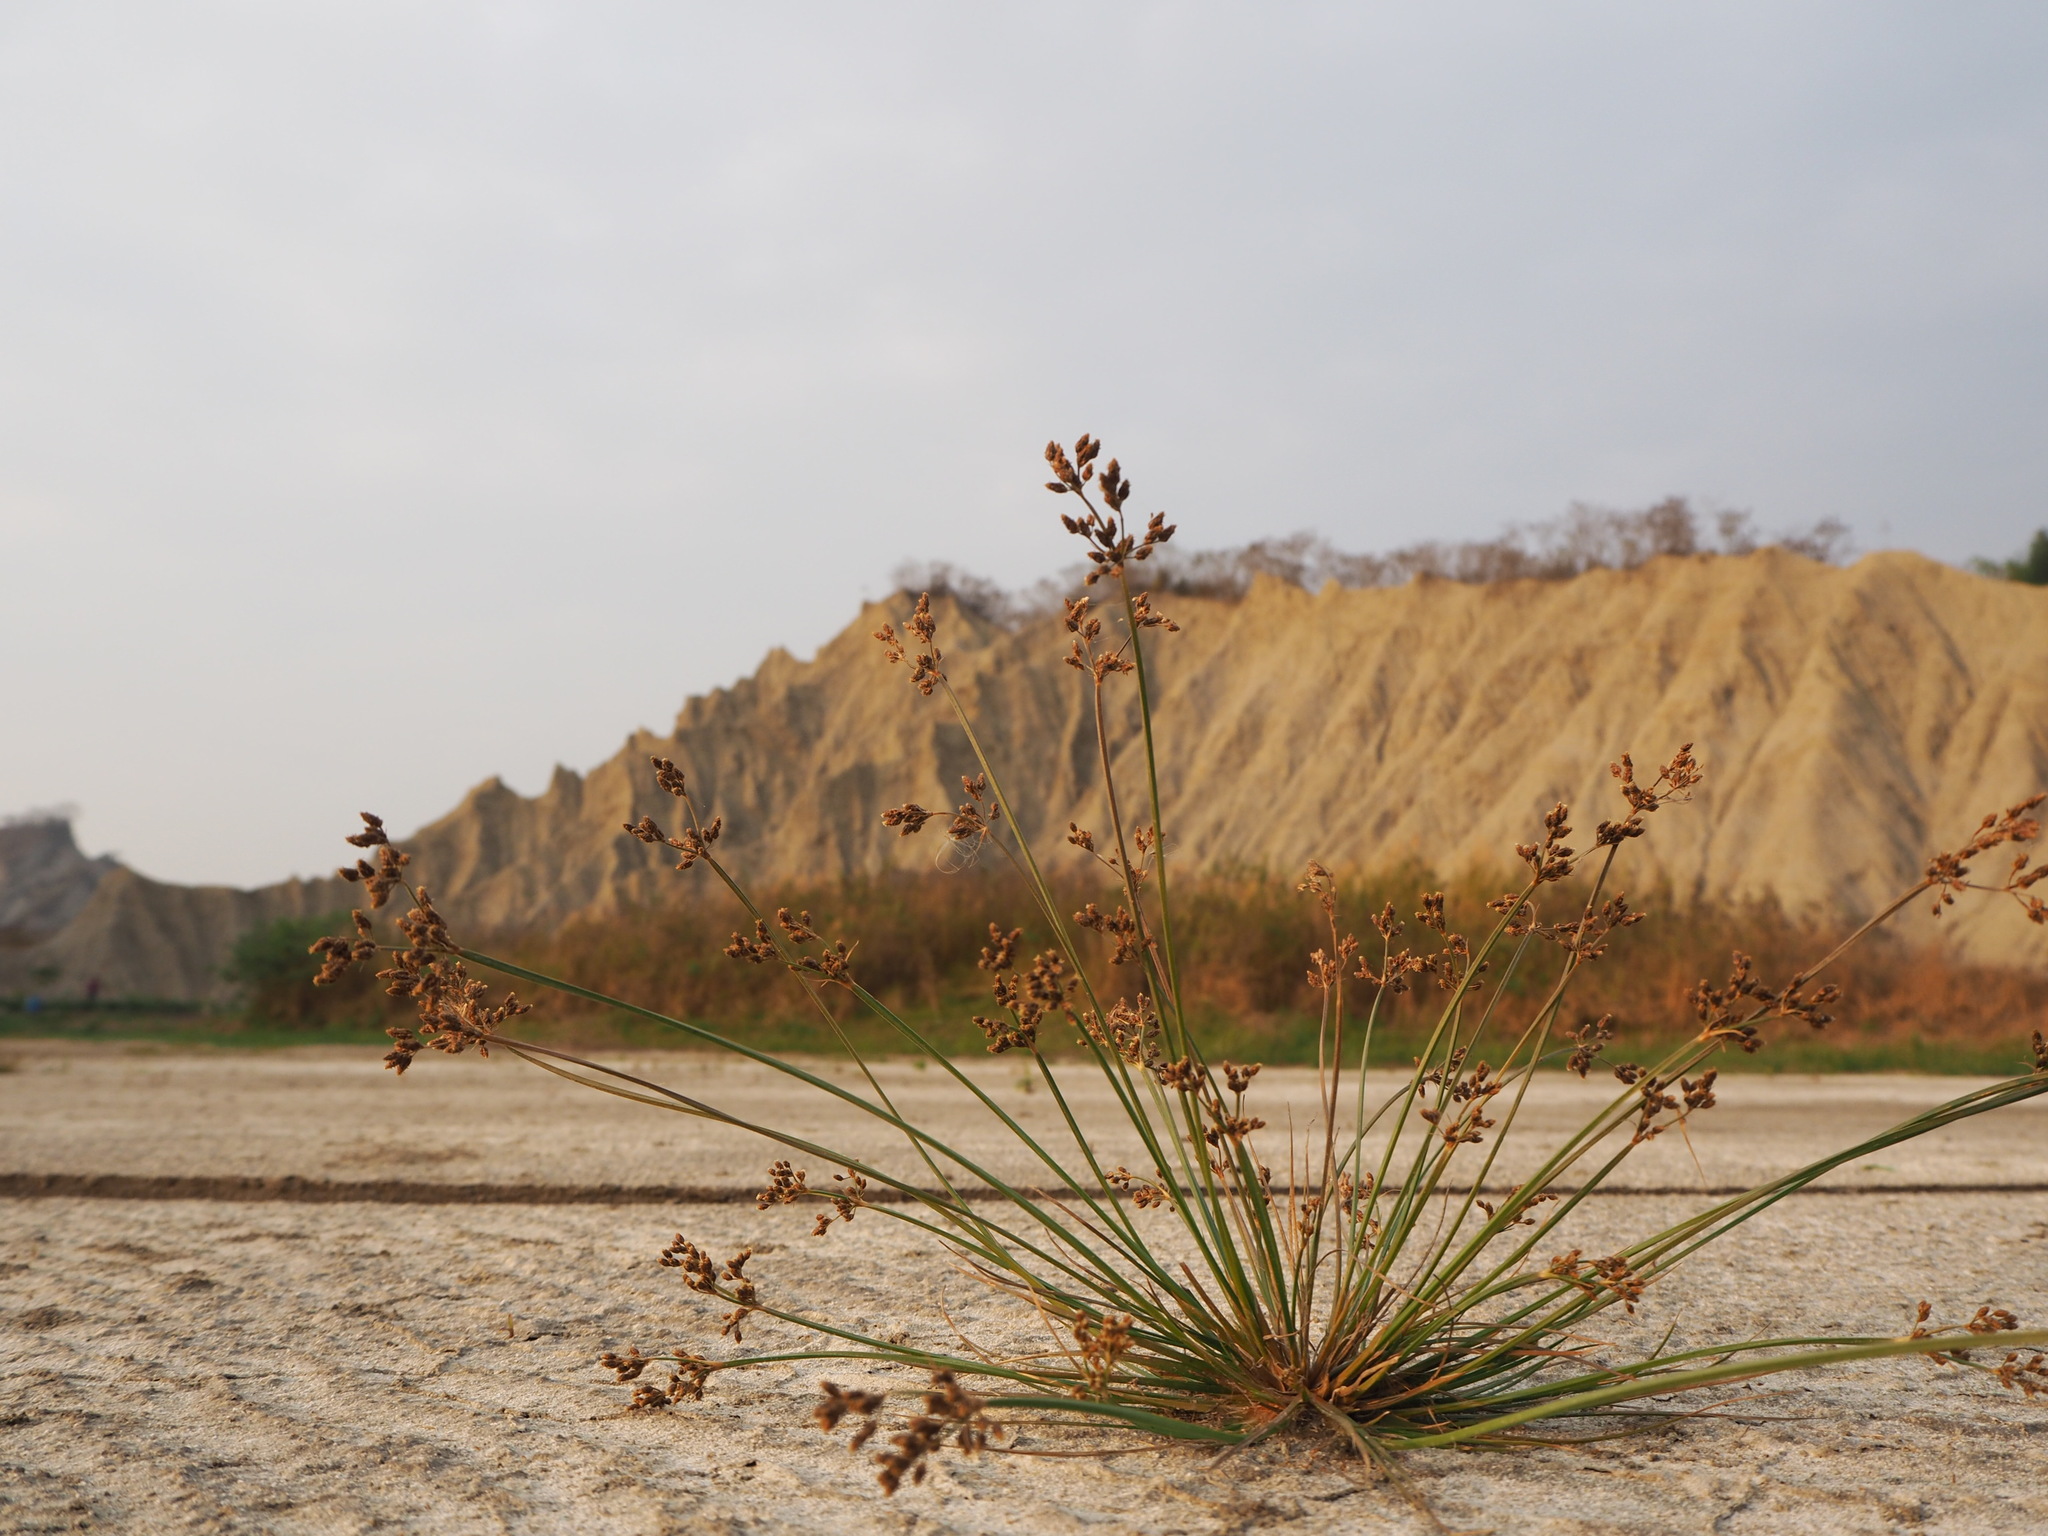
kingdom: Plantae
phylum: Tracheophyta
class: Liliopsida
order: Poales
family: Cyperaceae
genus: Fimbristylis
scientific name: Fimbristylis littoralis
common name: Fimbry
